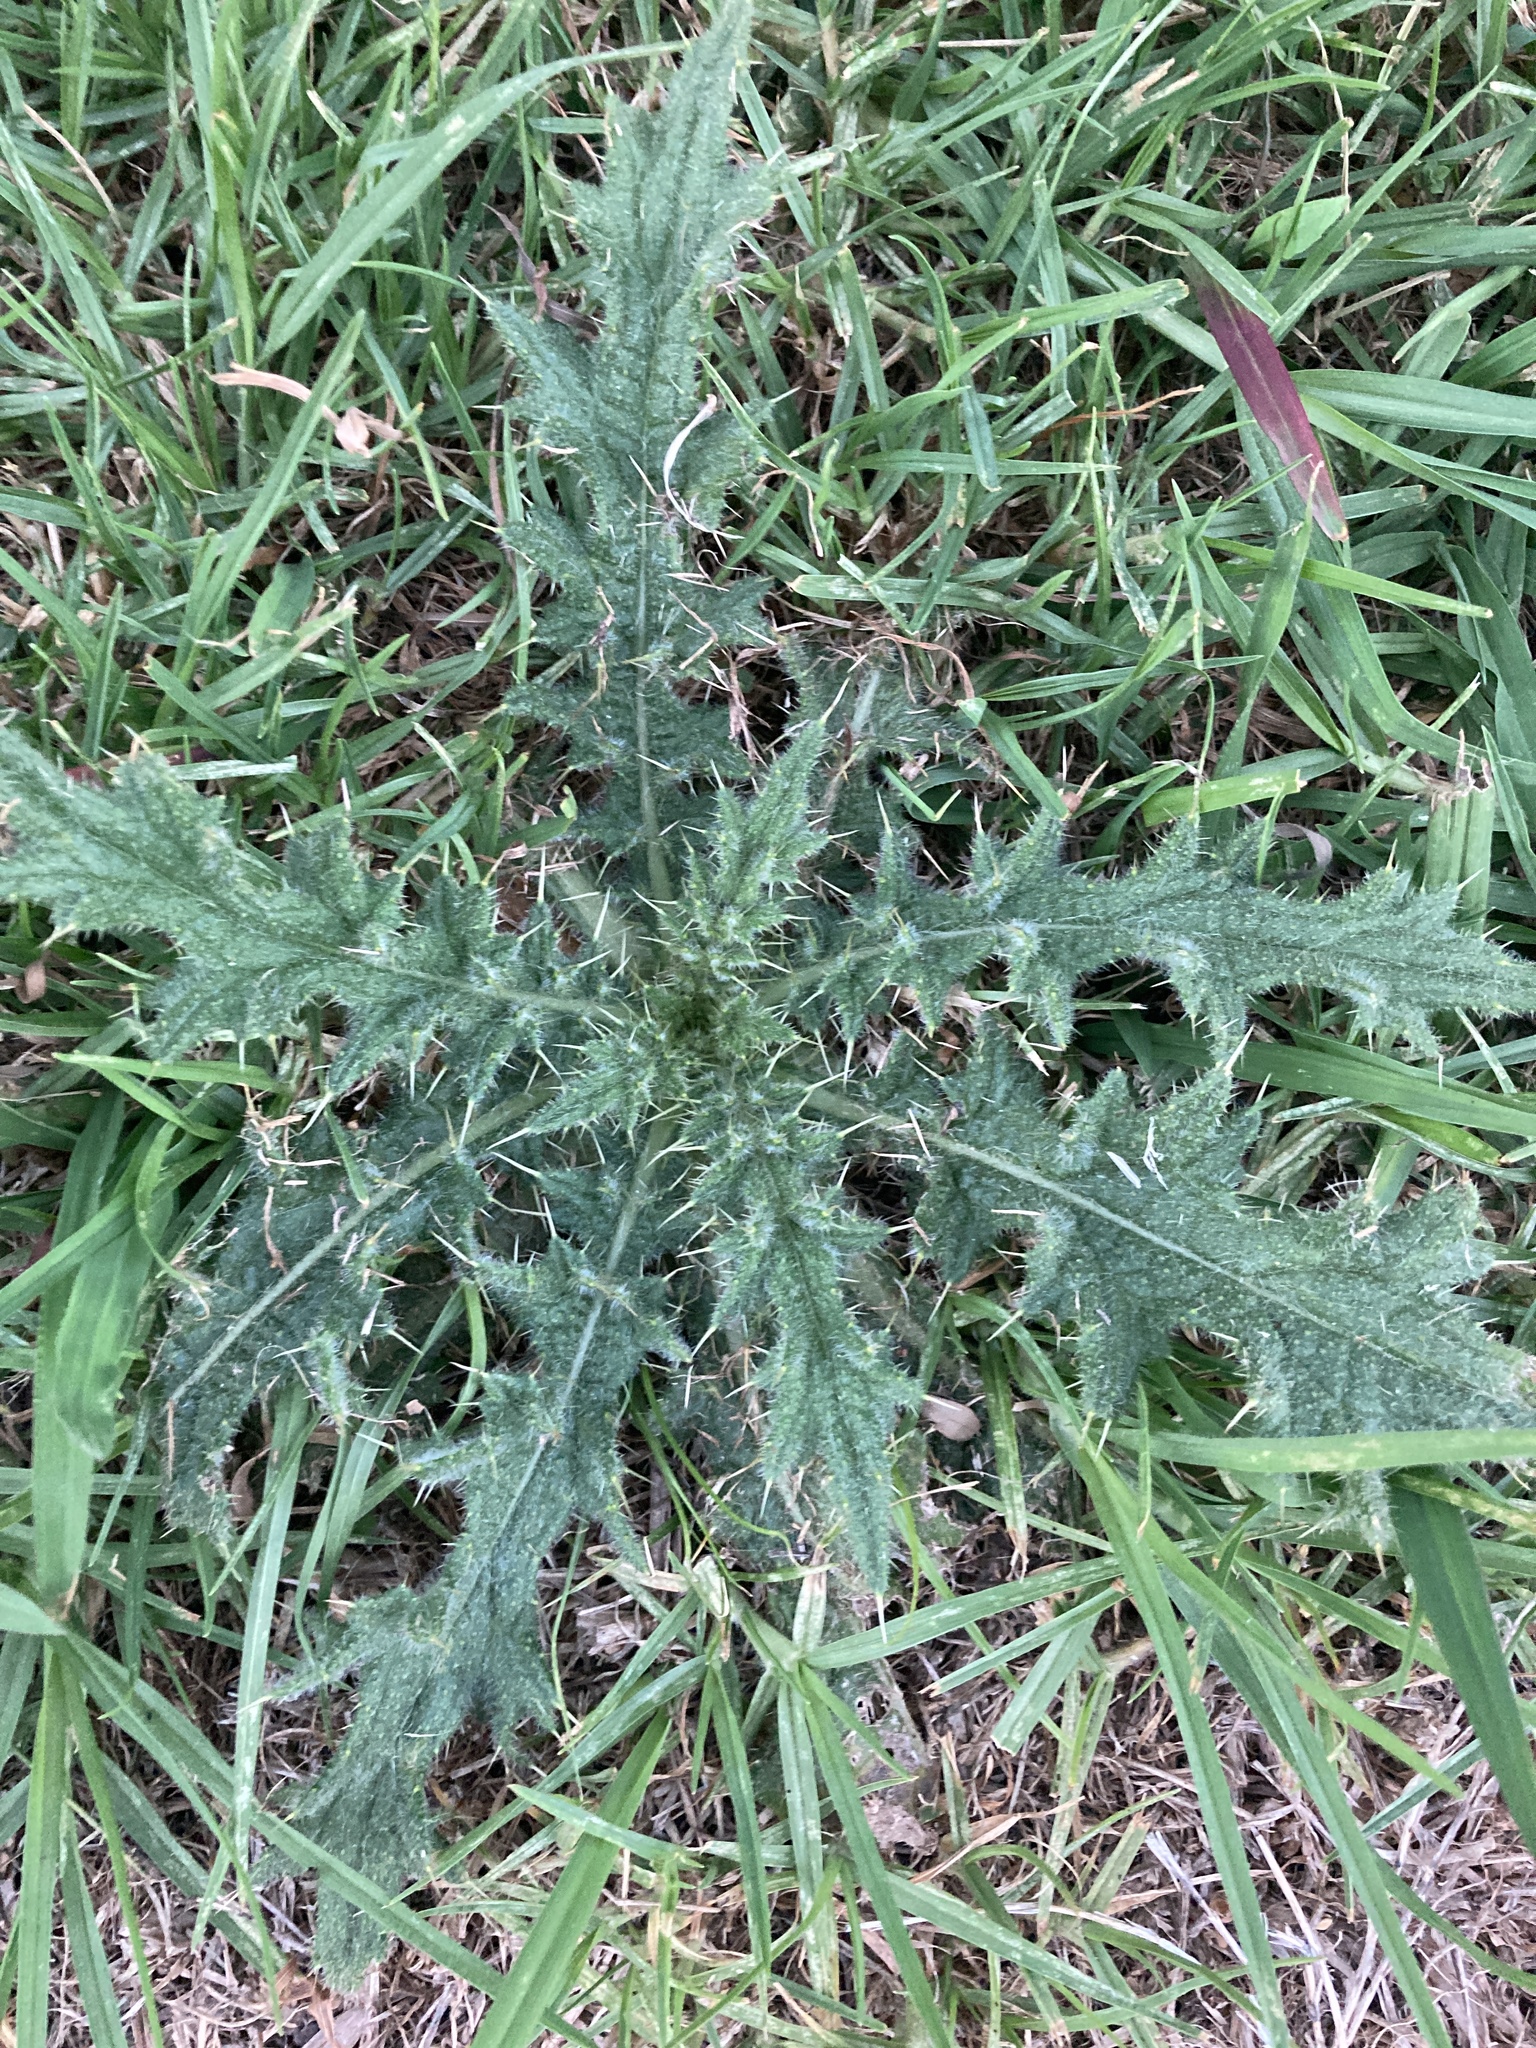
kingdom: Plantae
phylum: Tracheophyta
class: Magnoliopsida
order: Asterales
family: Asteraceae
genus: Cirsium
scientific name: Cirsium vulgare
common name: Bull thistle
